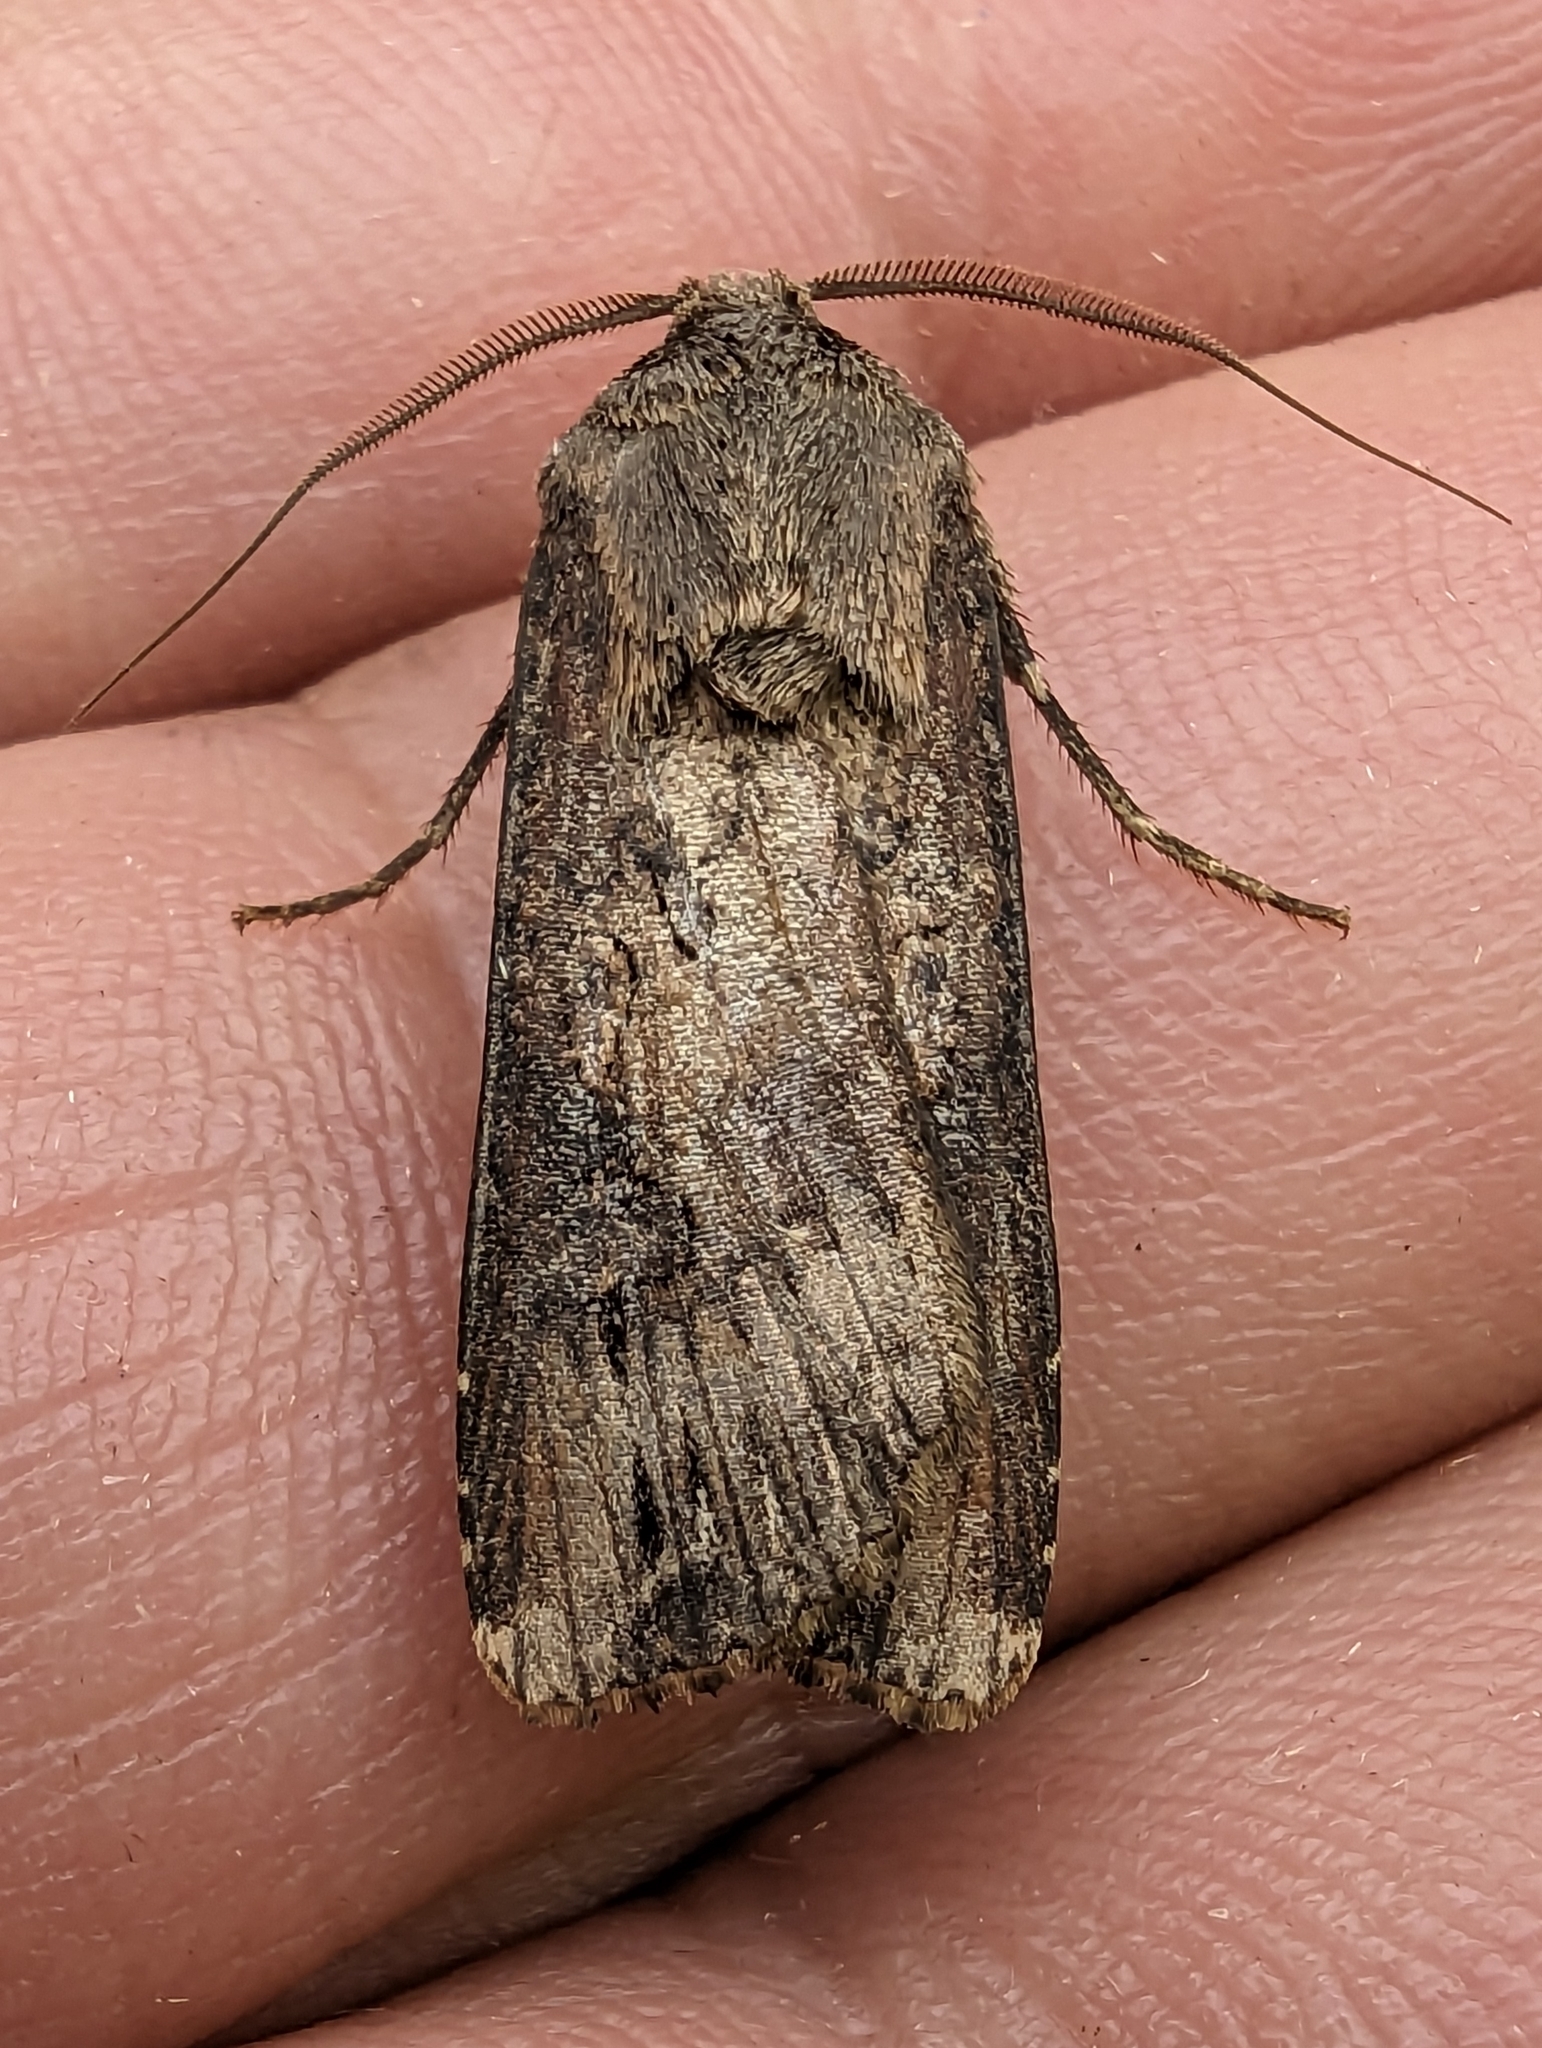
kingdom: Animalia
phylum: Arthropoda
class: Insecta
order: Lepidoptera
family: Noctuidae
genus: Agrotis
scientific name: Agrotis ipsilon
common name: Dark sword-grass
